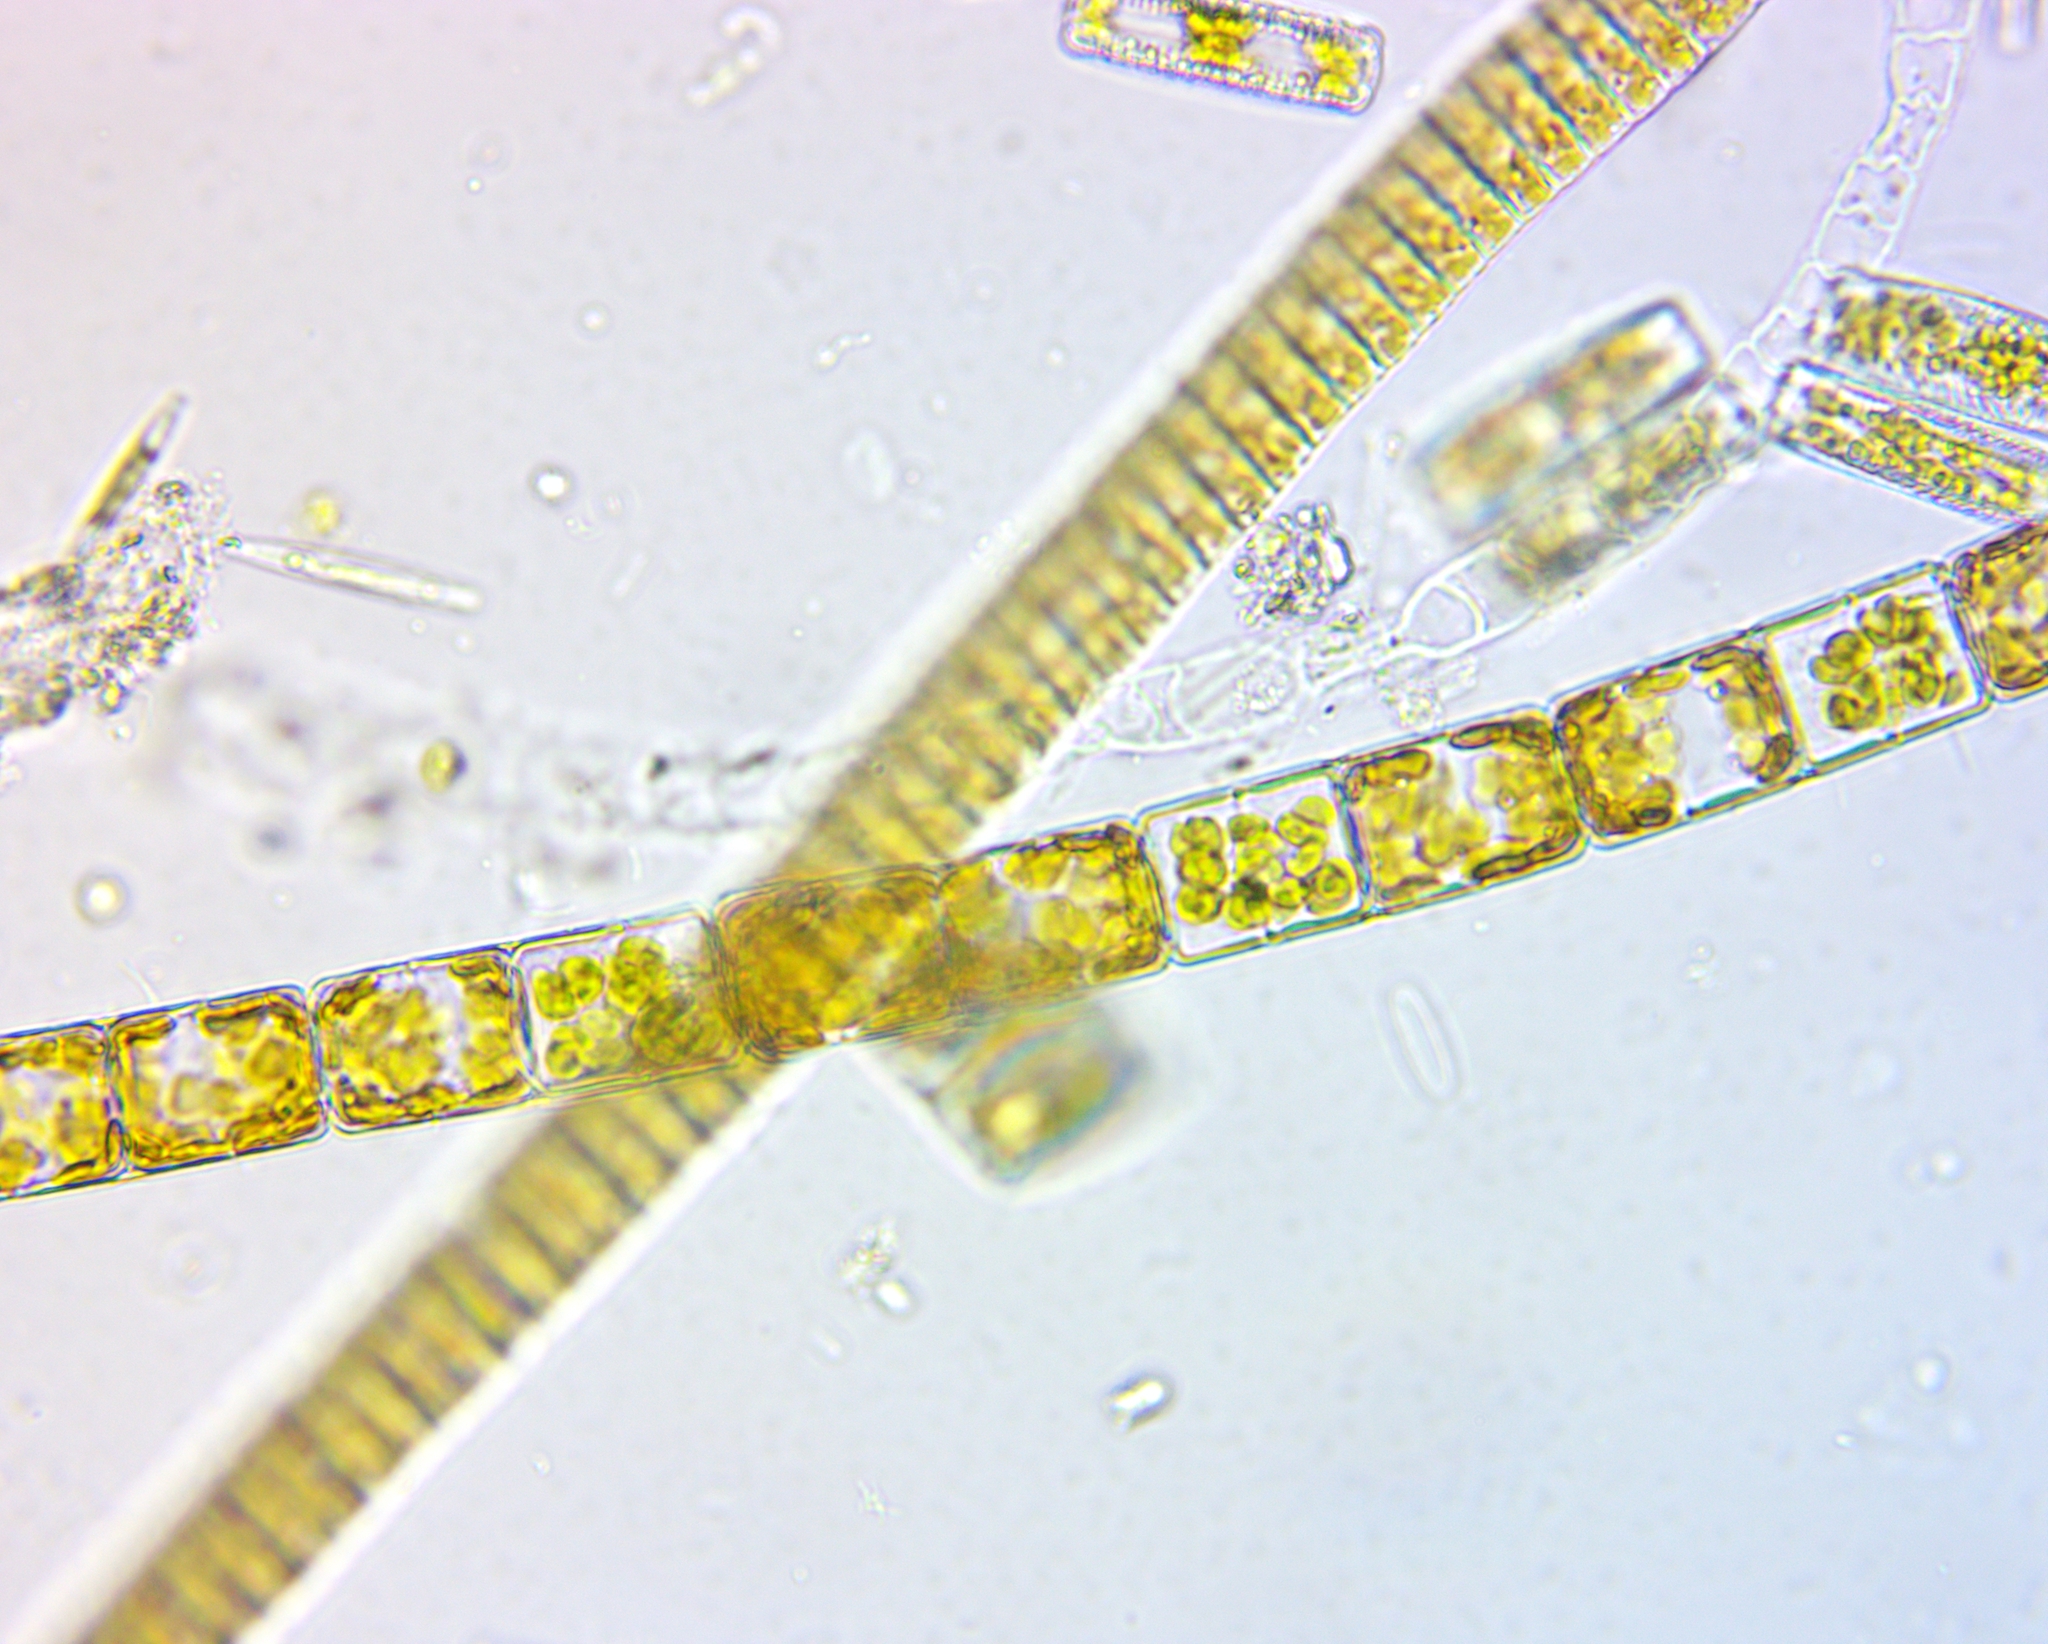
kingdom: Chromista
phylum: Ochrophyta
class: Bacillariophyceae
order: Melosirales
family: Melosiraceae
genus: Melosira
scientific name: Melosira varians
